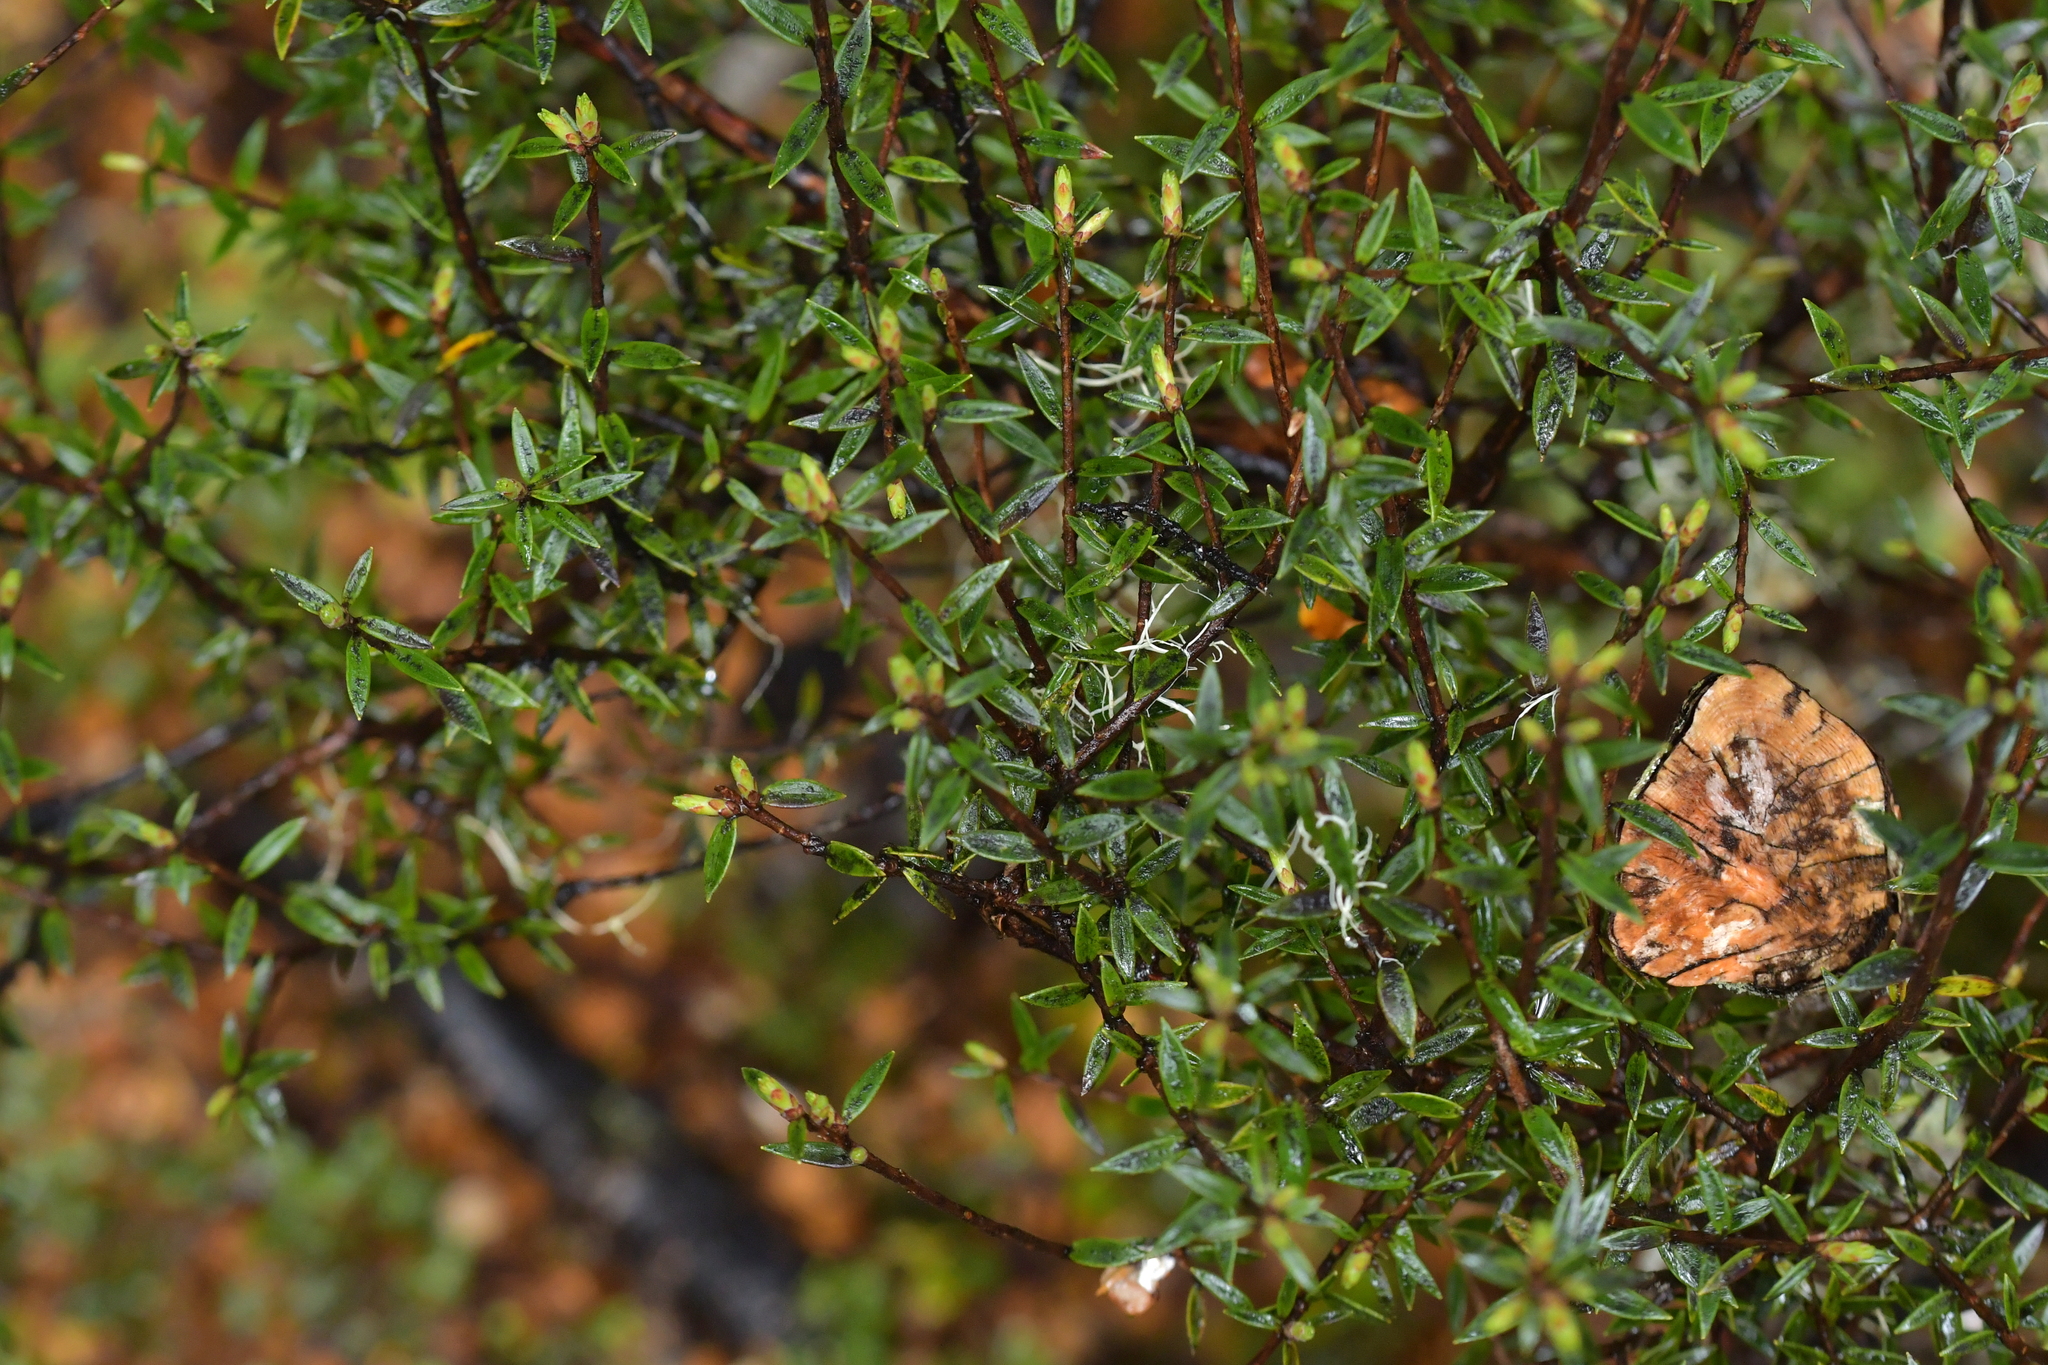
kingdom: Plantae
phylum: Tracheophyta
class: Magnoliopsida
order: Ericales
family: Ericaceae
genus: Archeria
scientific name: Archeria traversii
